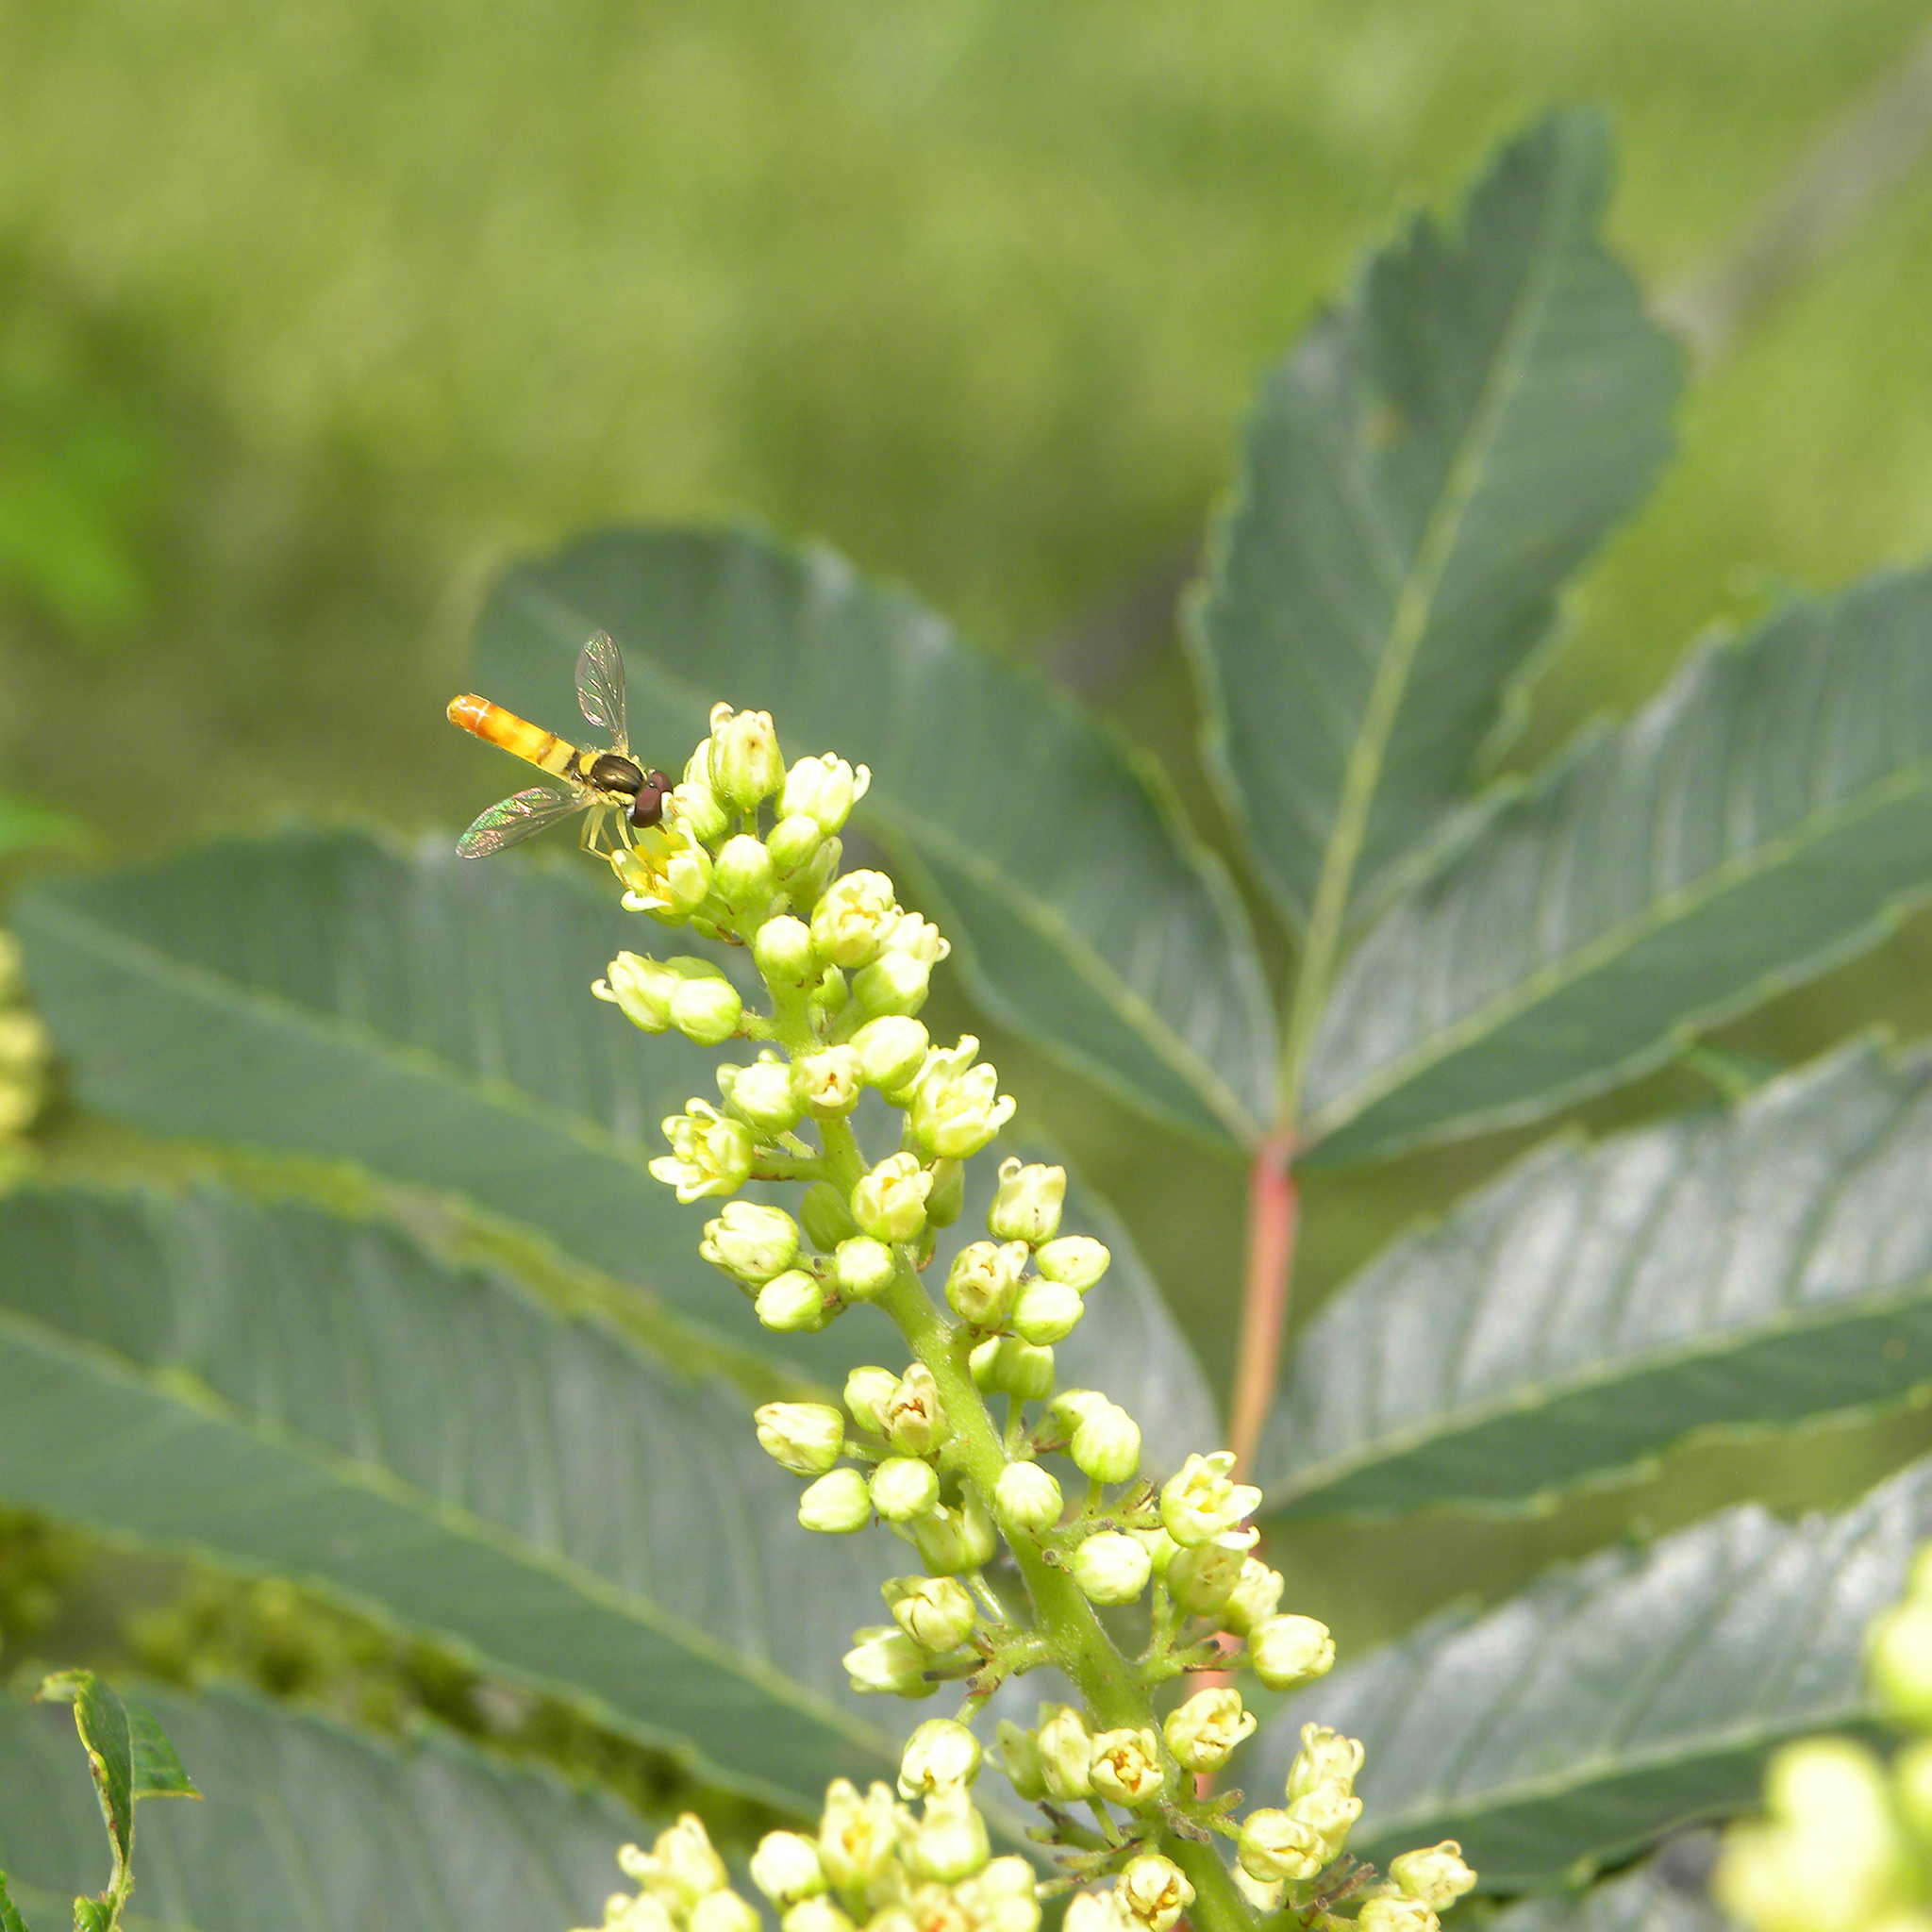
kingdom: Animalia
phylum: Arthropoda
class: Insecta
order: Diptera
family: Syrphidae
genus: Sphaerophoria
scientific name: Sphaerophoria contigua
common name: Tufted globetail
